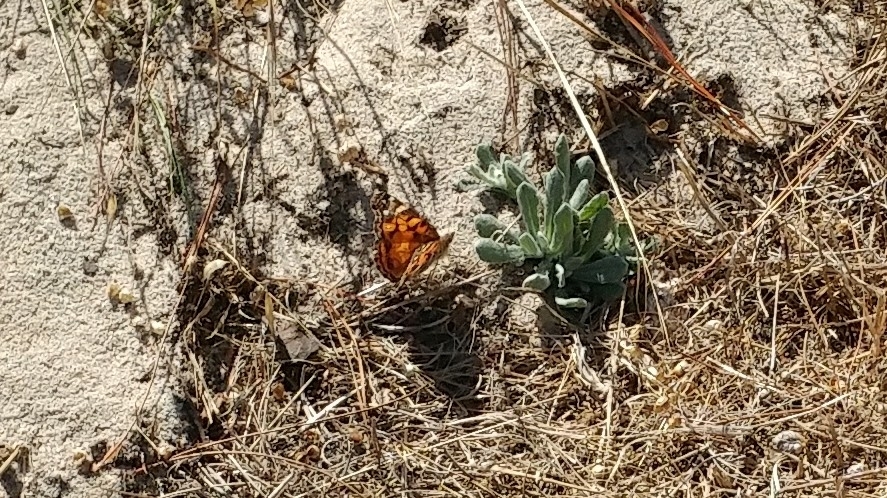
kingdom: Animalia
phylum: Arthropoda
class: Insecta
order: Lepidoptera
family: Nymphalidae
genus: Vanessa
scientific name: Vanessa virginiensis
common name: American lady
